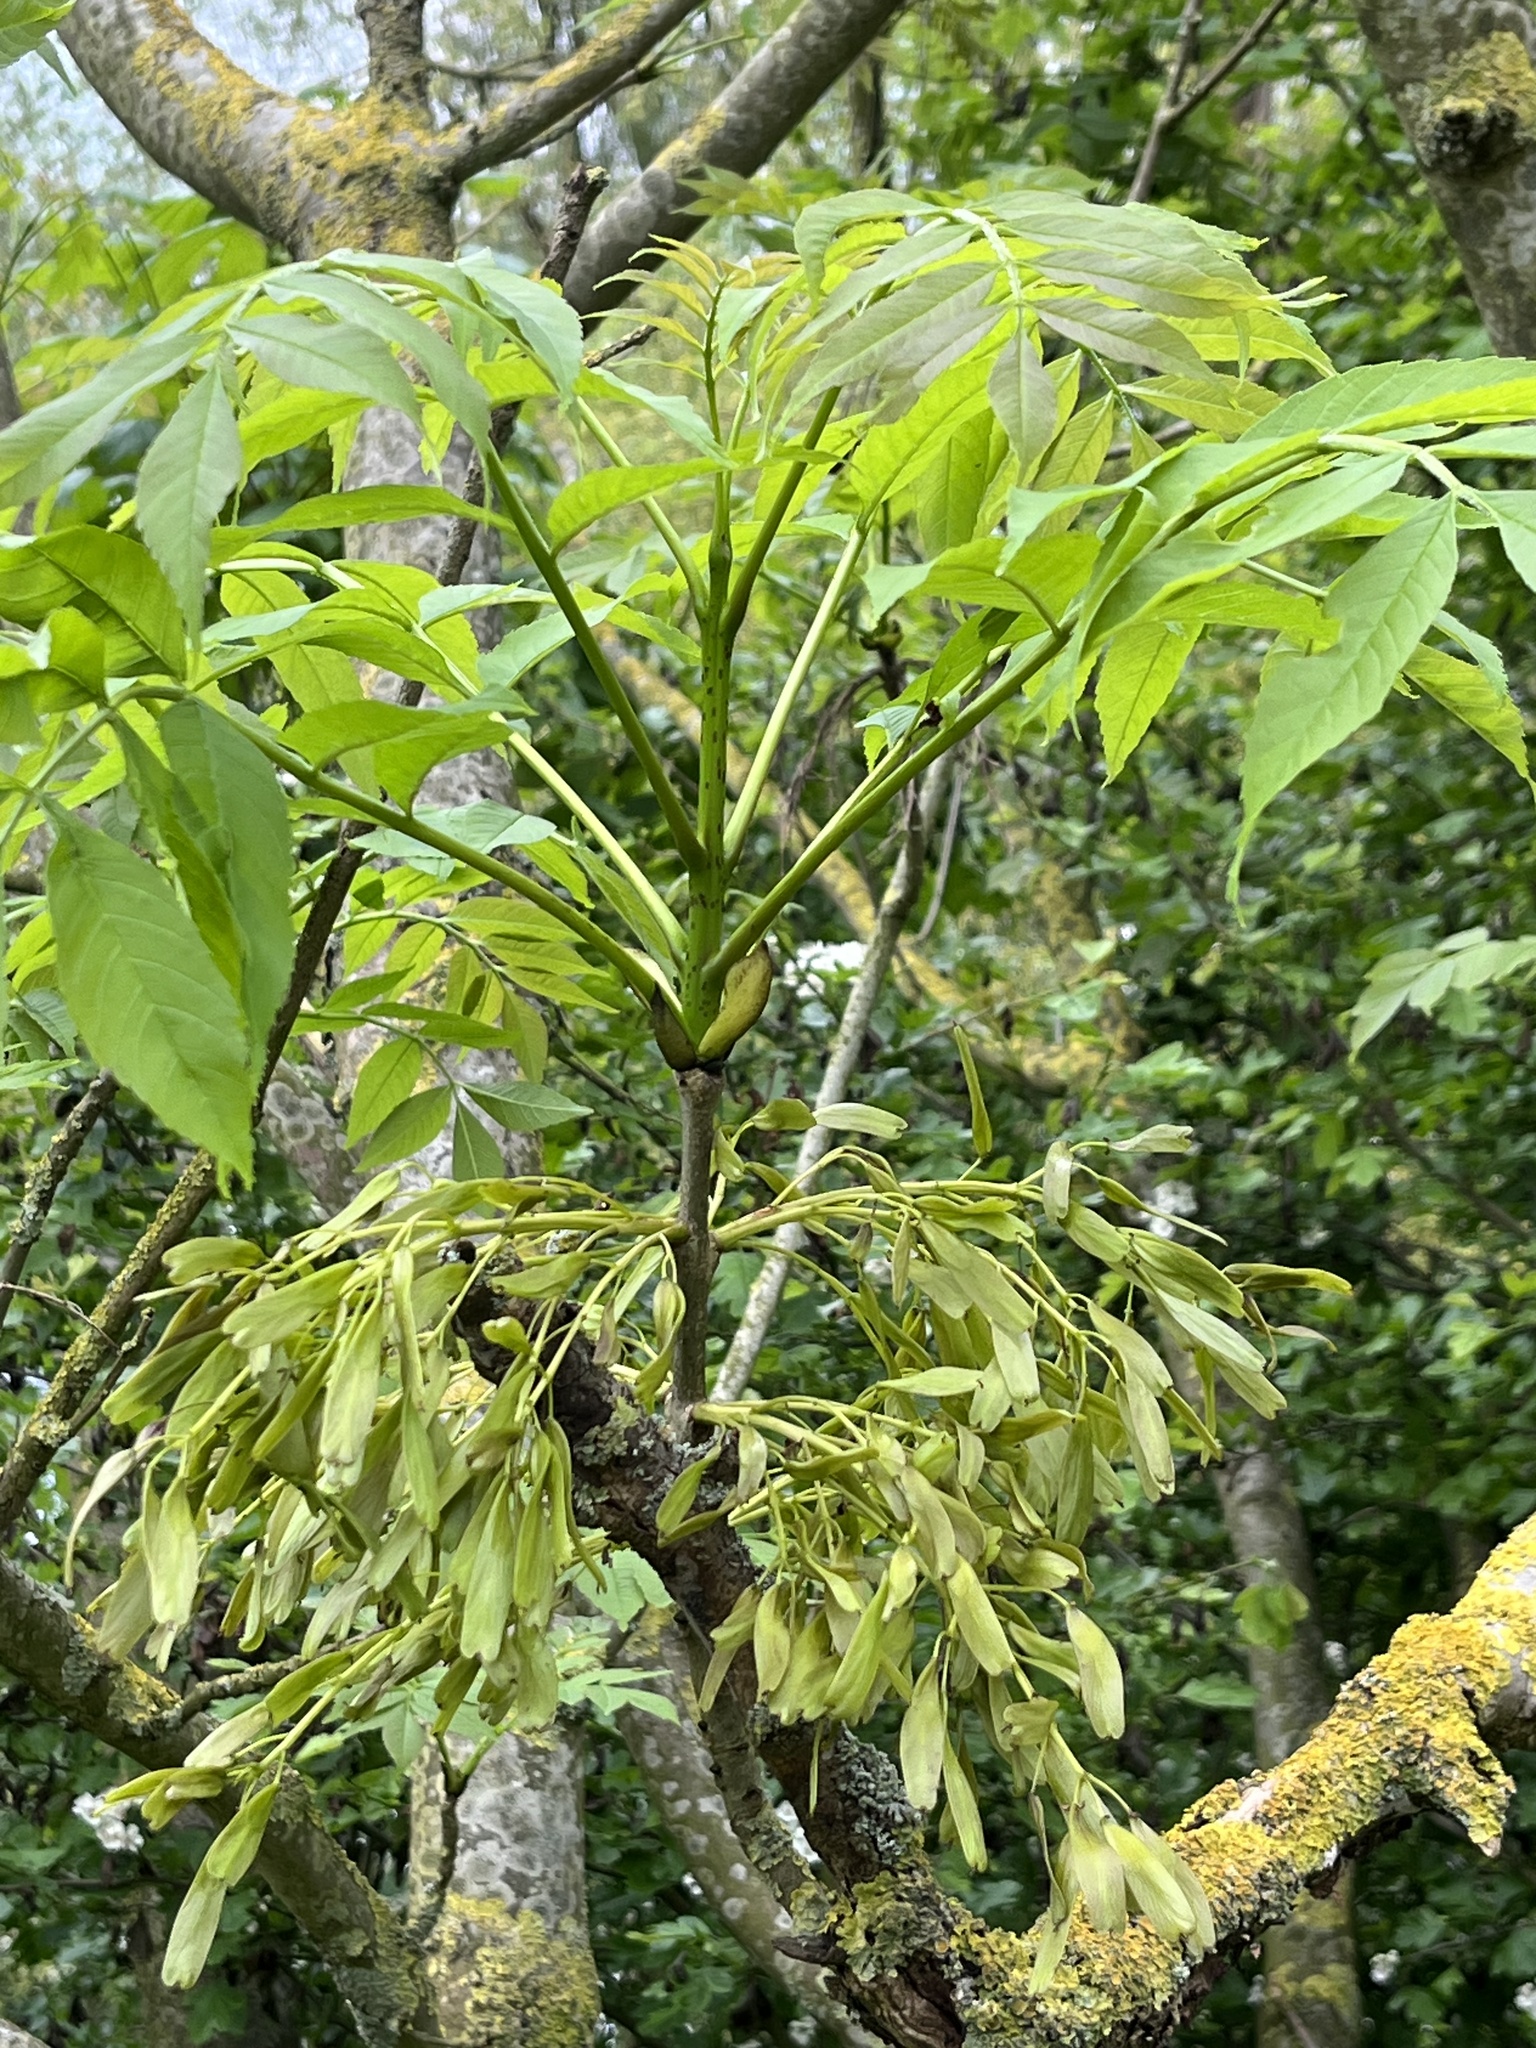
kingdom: Plantae
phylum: Tracheophyta
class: Magnoliopsida
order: Lamiales
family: Oleaceae
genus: Fraxinus
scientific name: Fraxinus excelsior
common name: European ash
